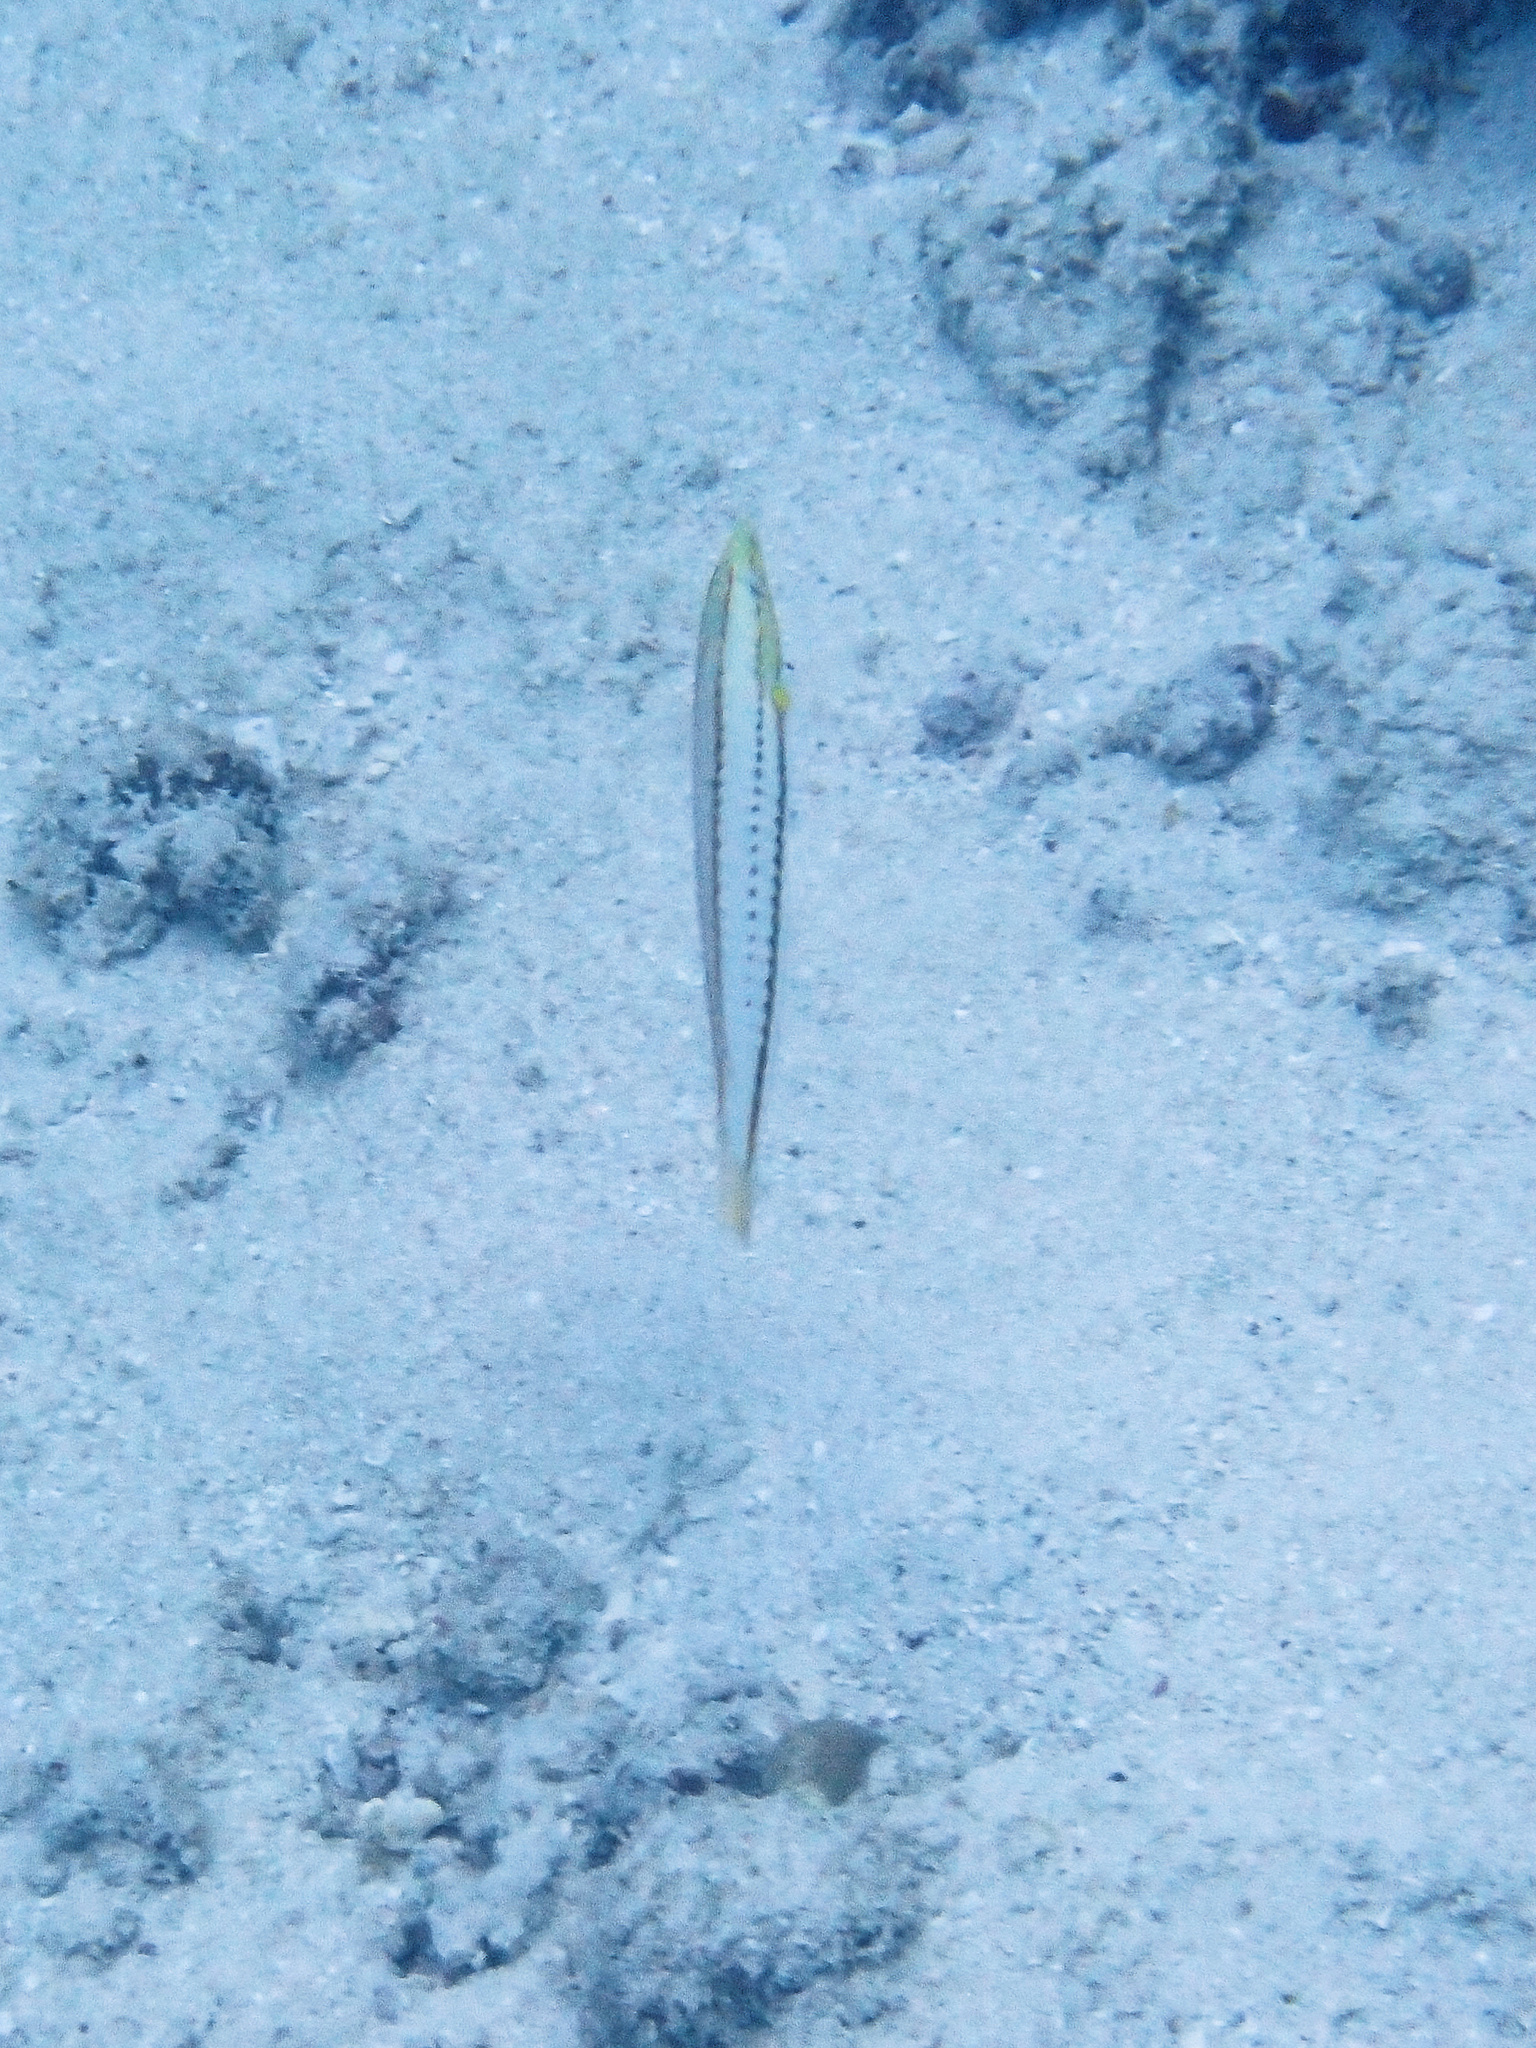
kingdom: Animalia
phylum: Chordata
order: Perciformes
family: Labridae
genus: Hologymnosus
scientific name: Hologymnosus doliatus
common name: Pastel ringwrasse
